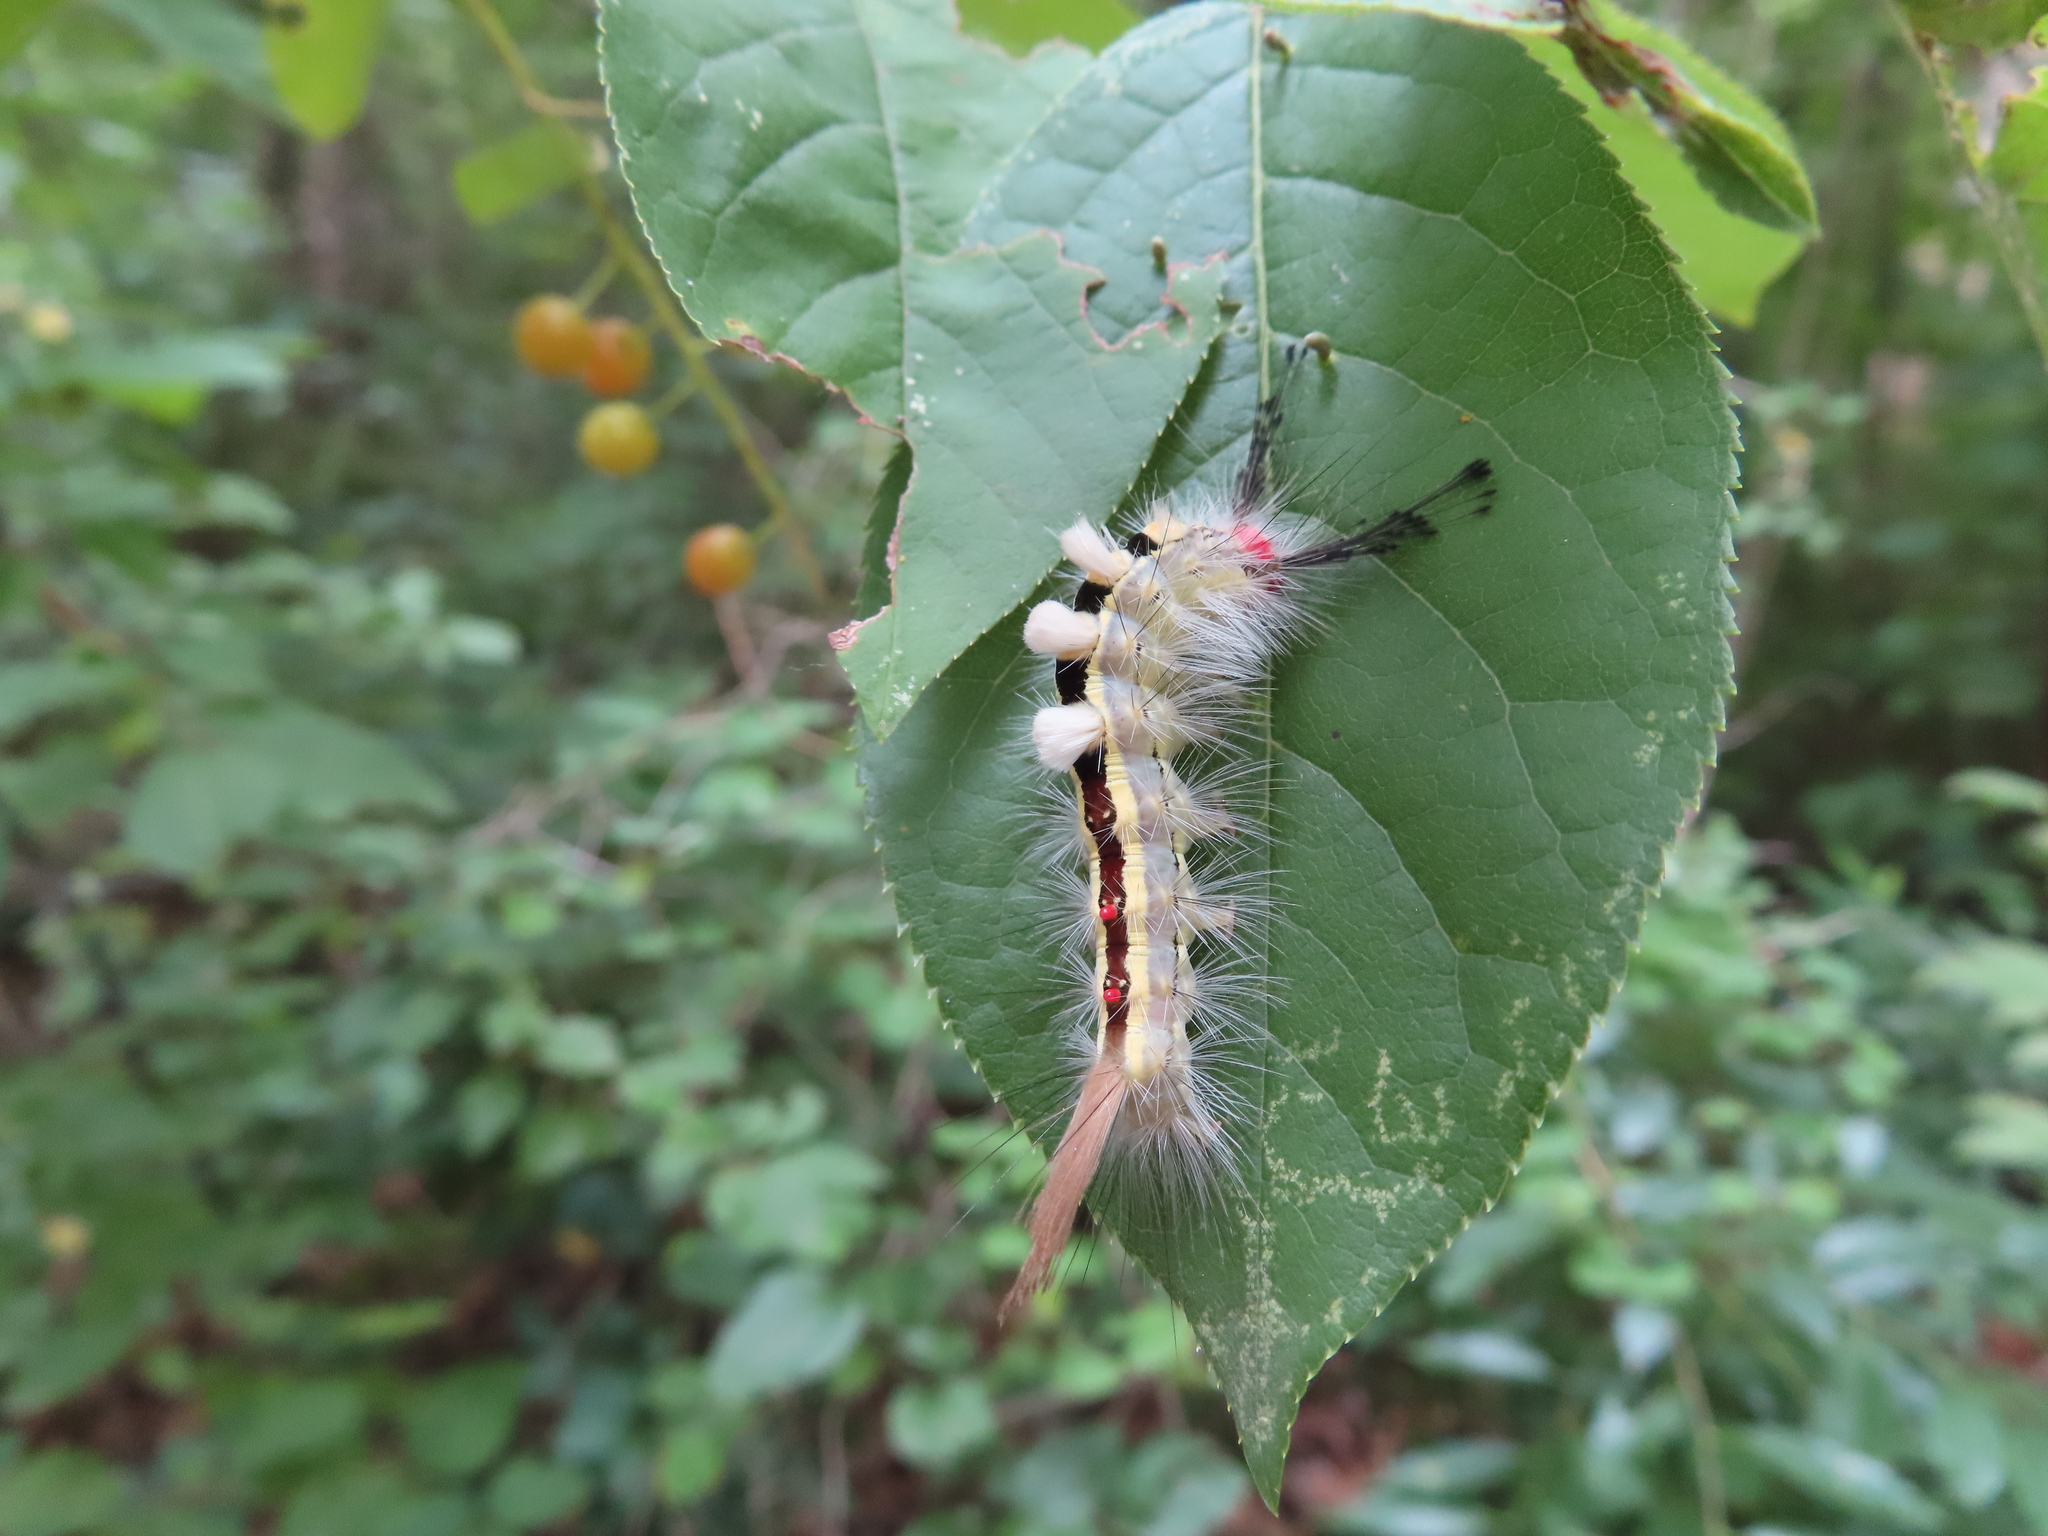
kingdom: Animalia
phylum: Arthropoda
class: Insecta
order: Lepidoptera
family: Erebidae
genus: Orgyia
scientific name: Orgyia leucostigma
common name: White-marked tussock moth
